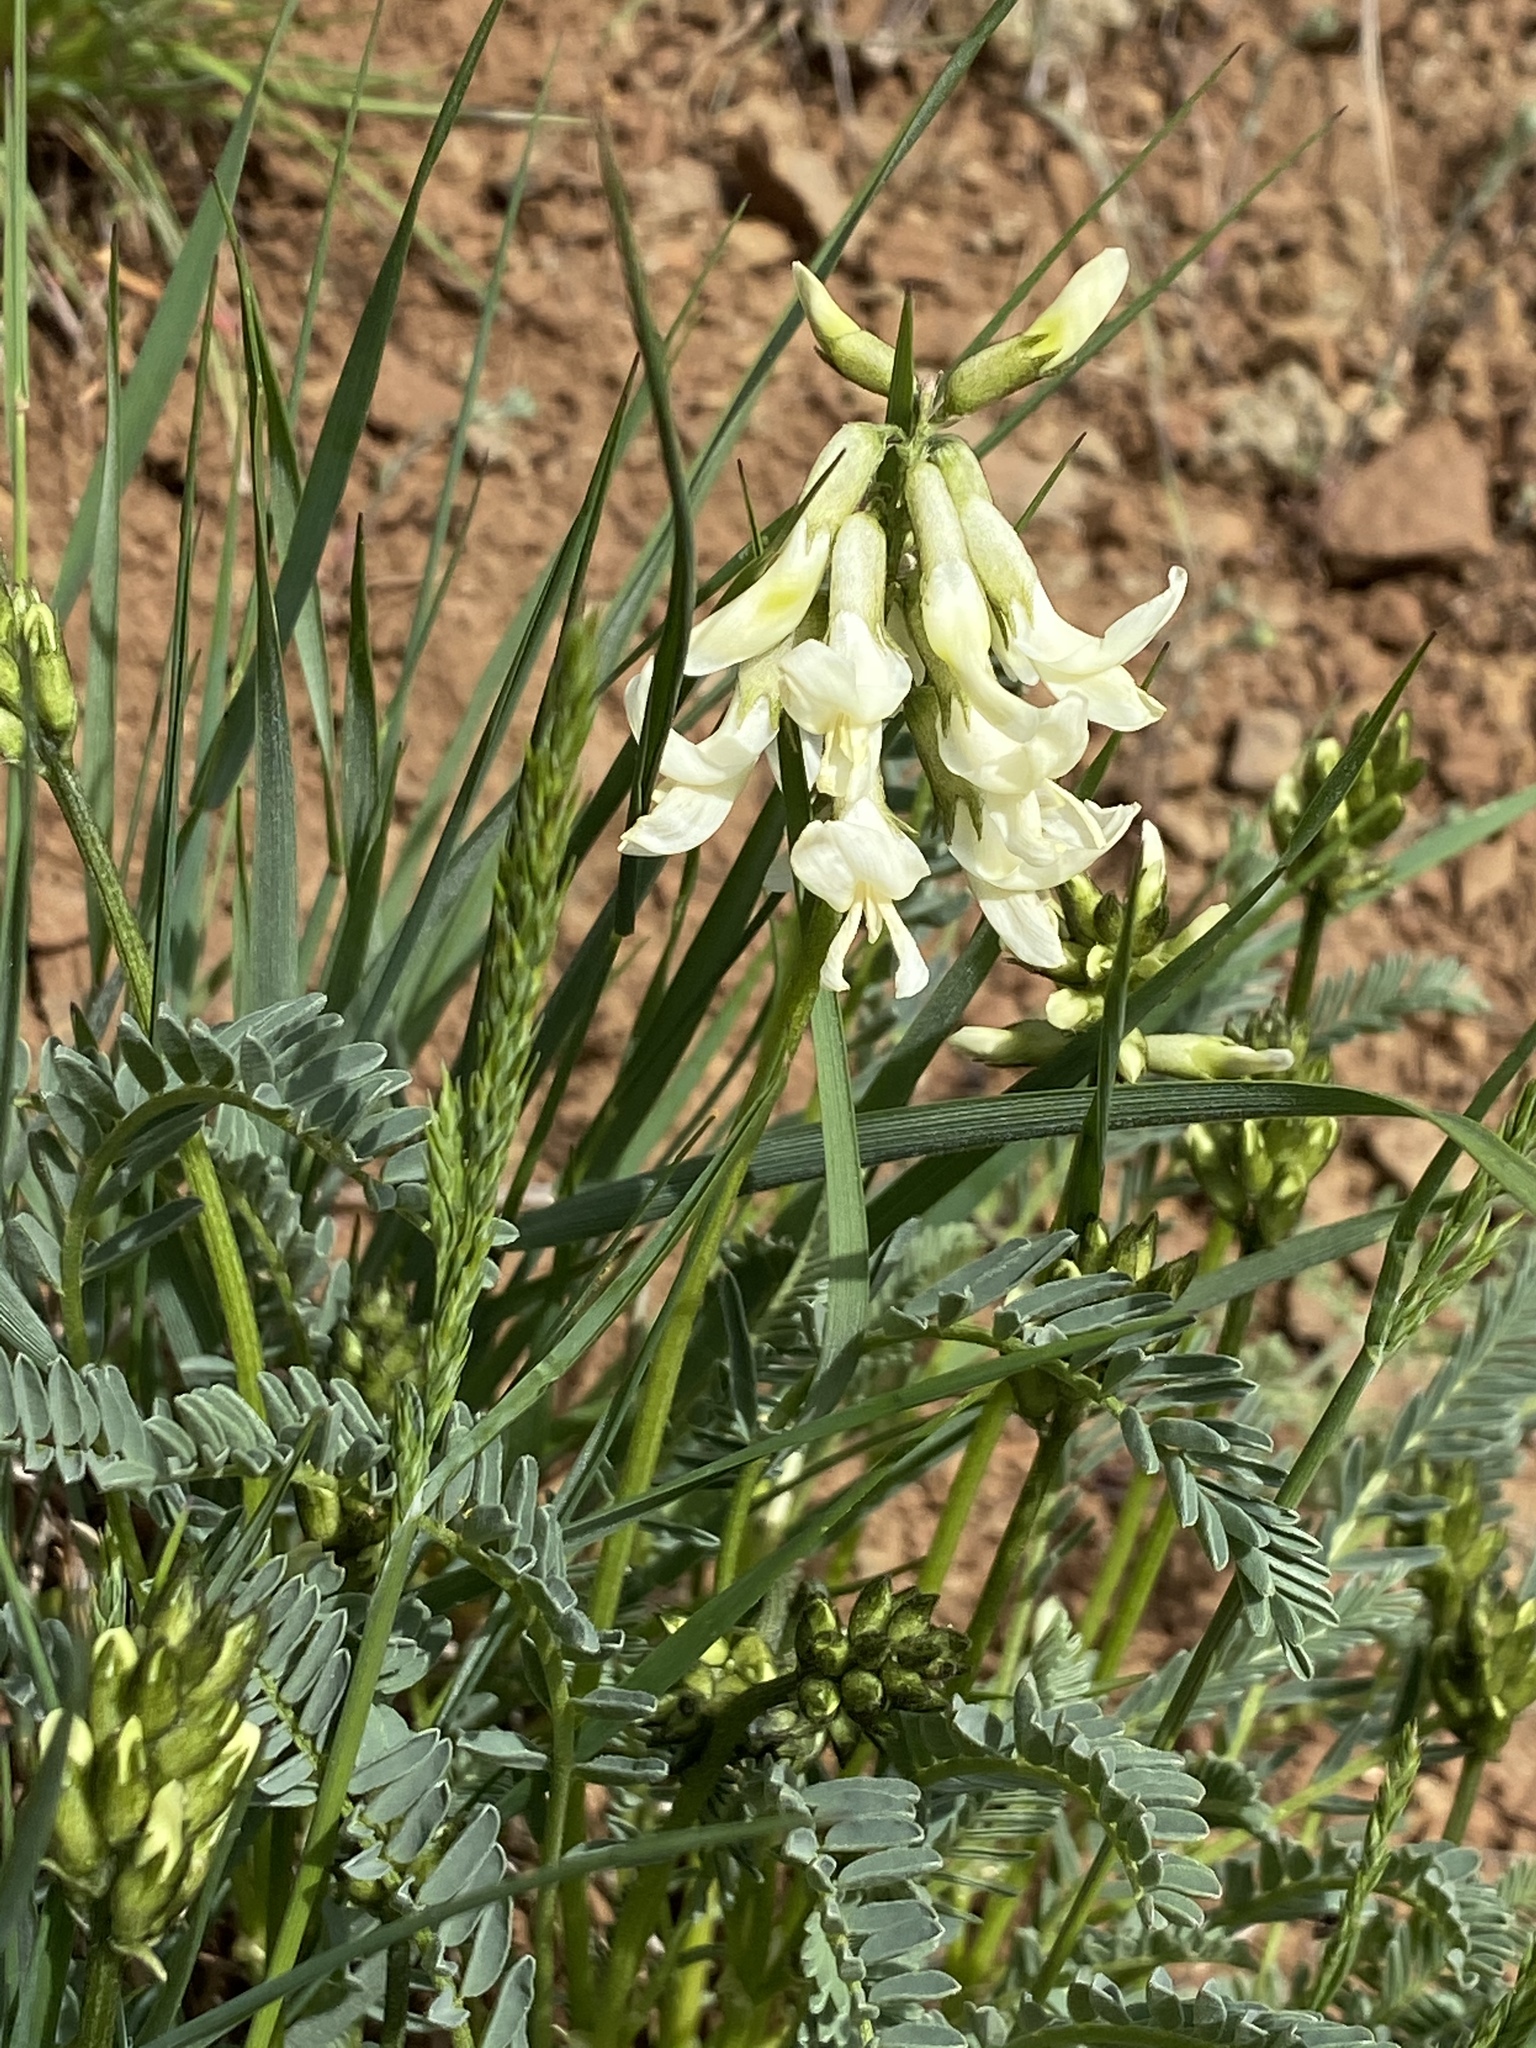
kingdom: Plantae
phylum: Tracheophyta
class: Magnoliopsida
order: Fabales
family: Fabaceae
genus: Astragalus
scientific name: Astragalus reventus
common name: Revenant locoweed
